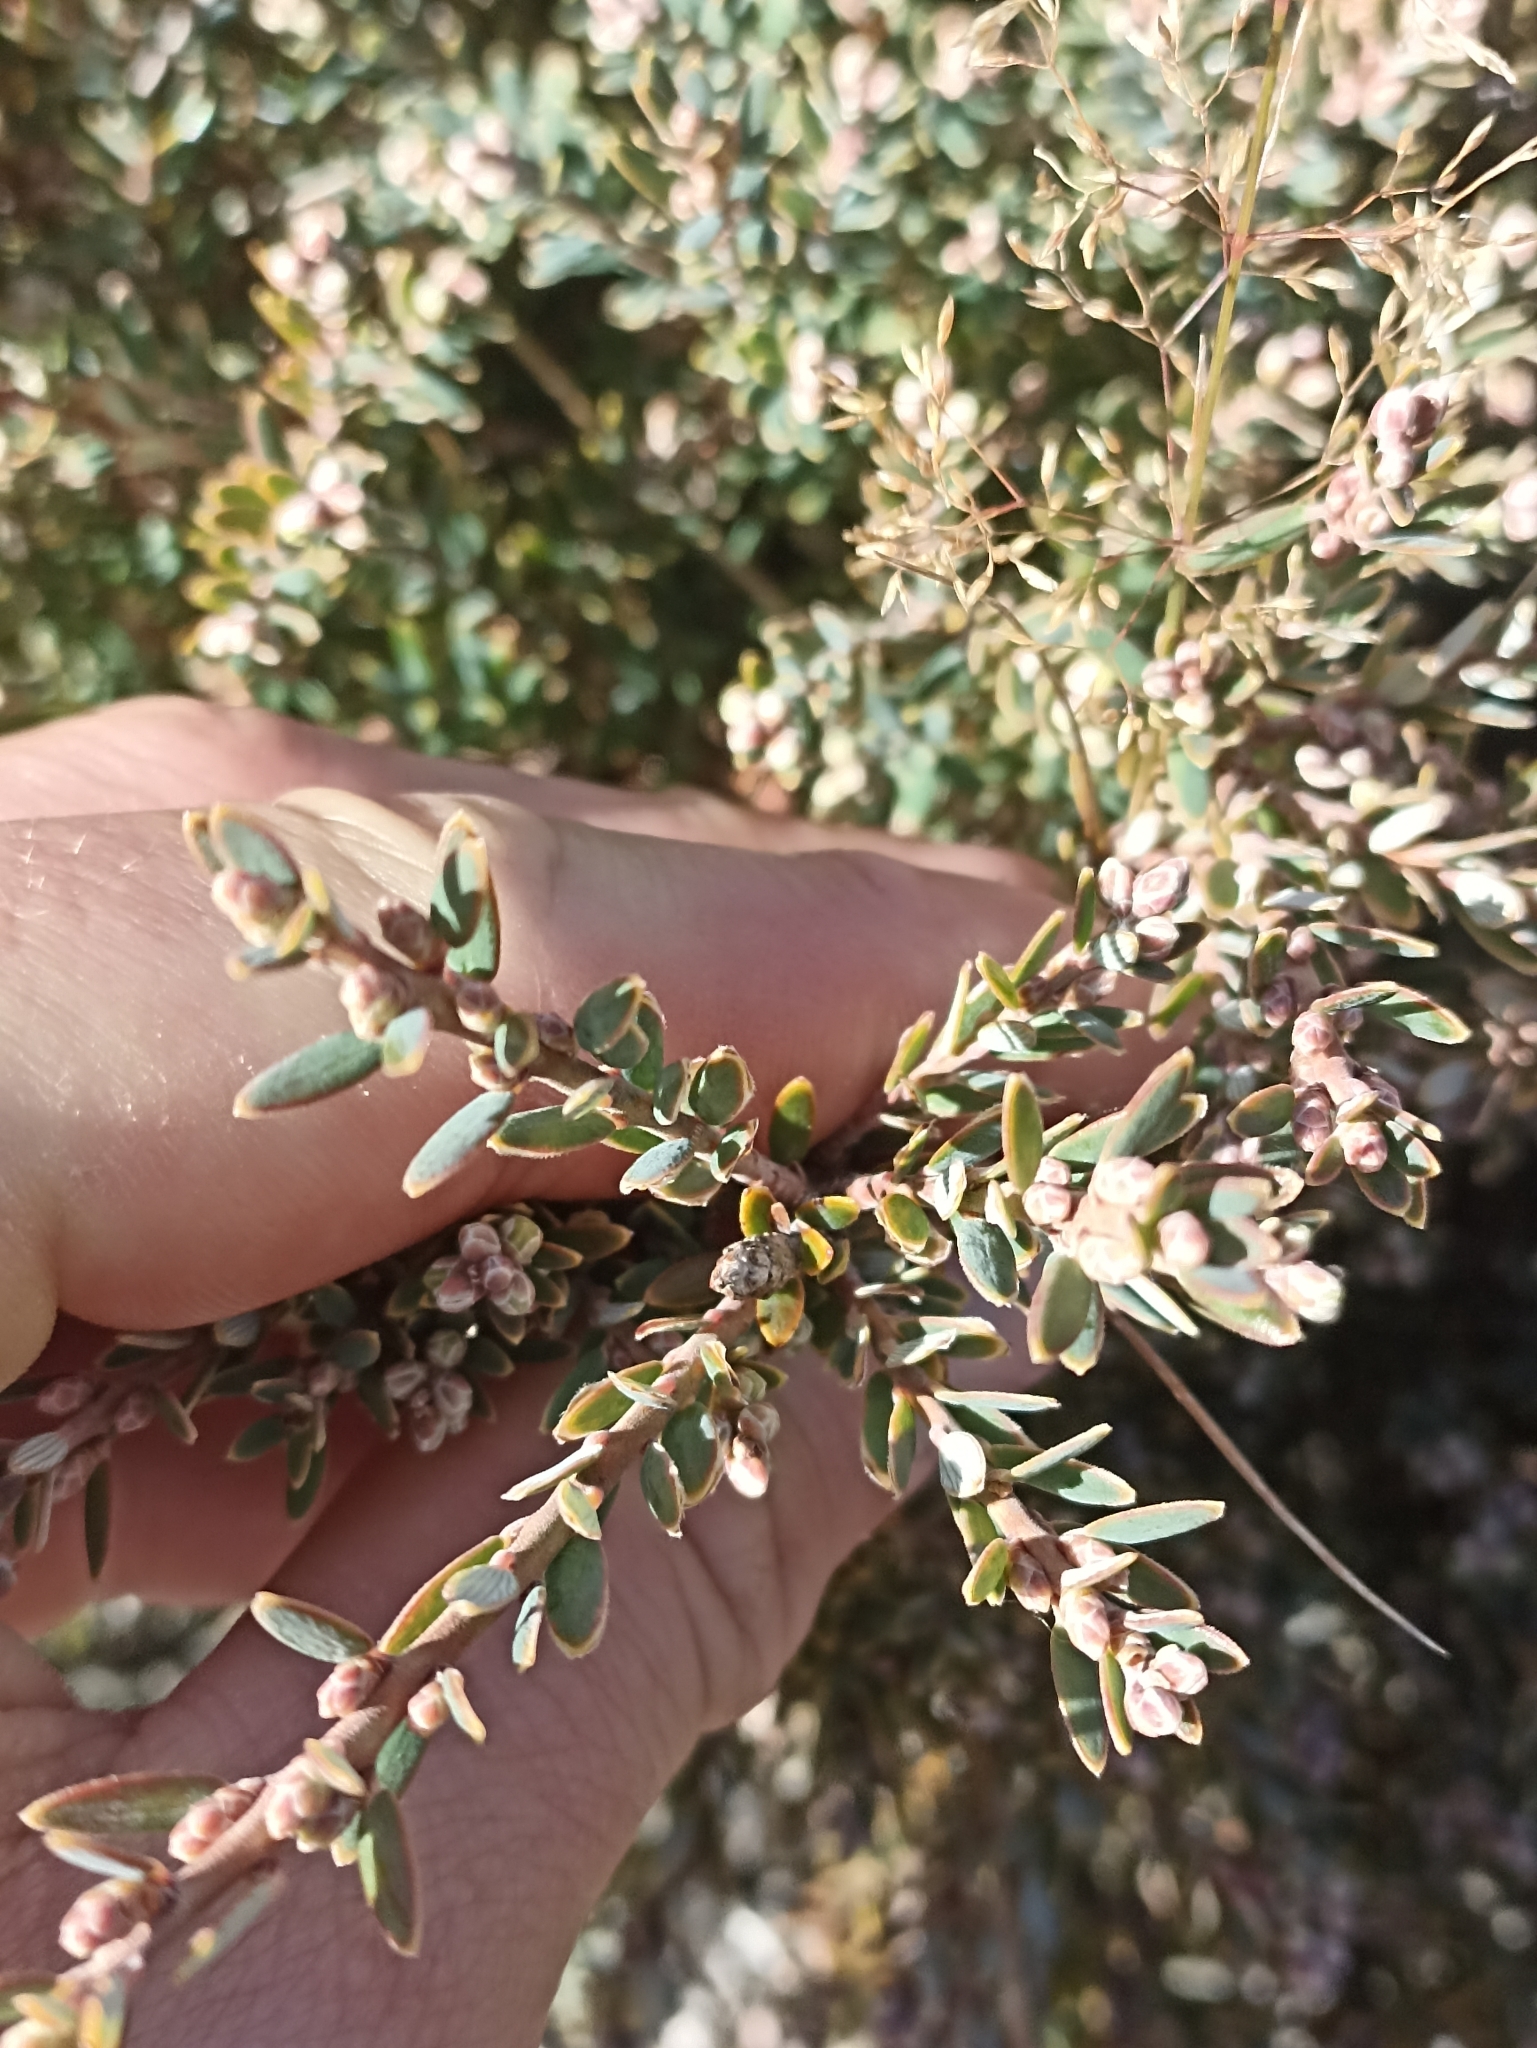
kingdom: Plantae
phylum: Tracheophyta
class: Magnoliopsida
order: Ericales
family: Ericaceae
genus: Acrothamnus
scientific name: Acrothamnus colensoi
